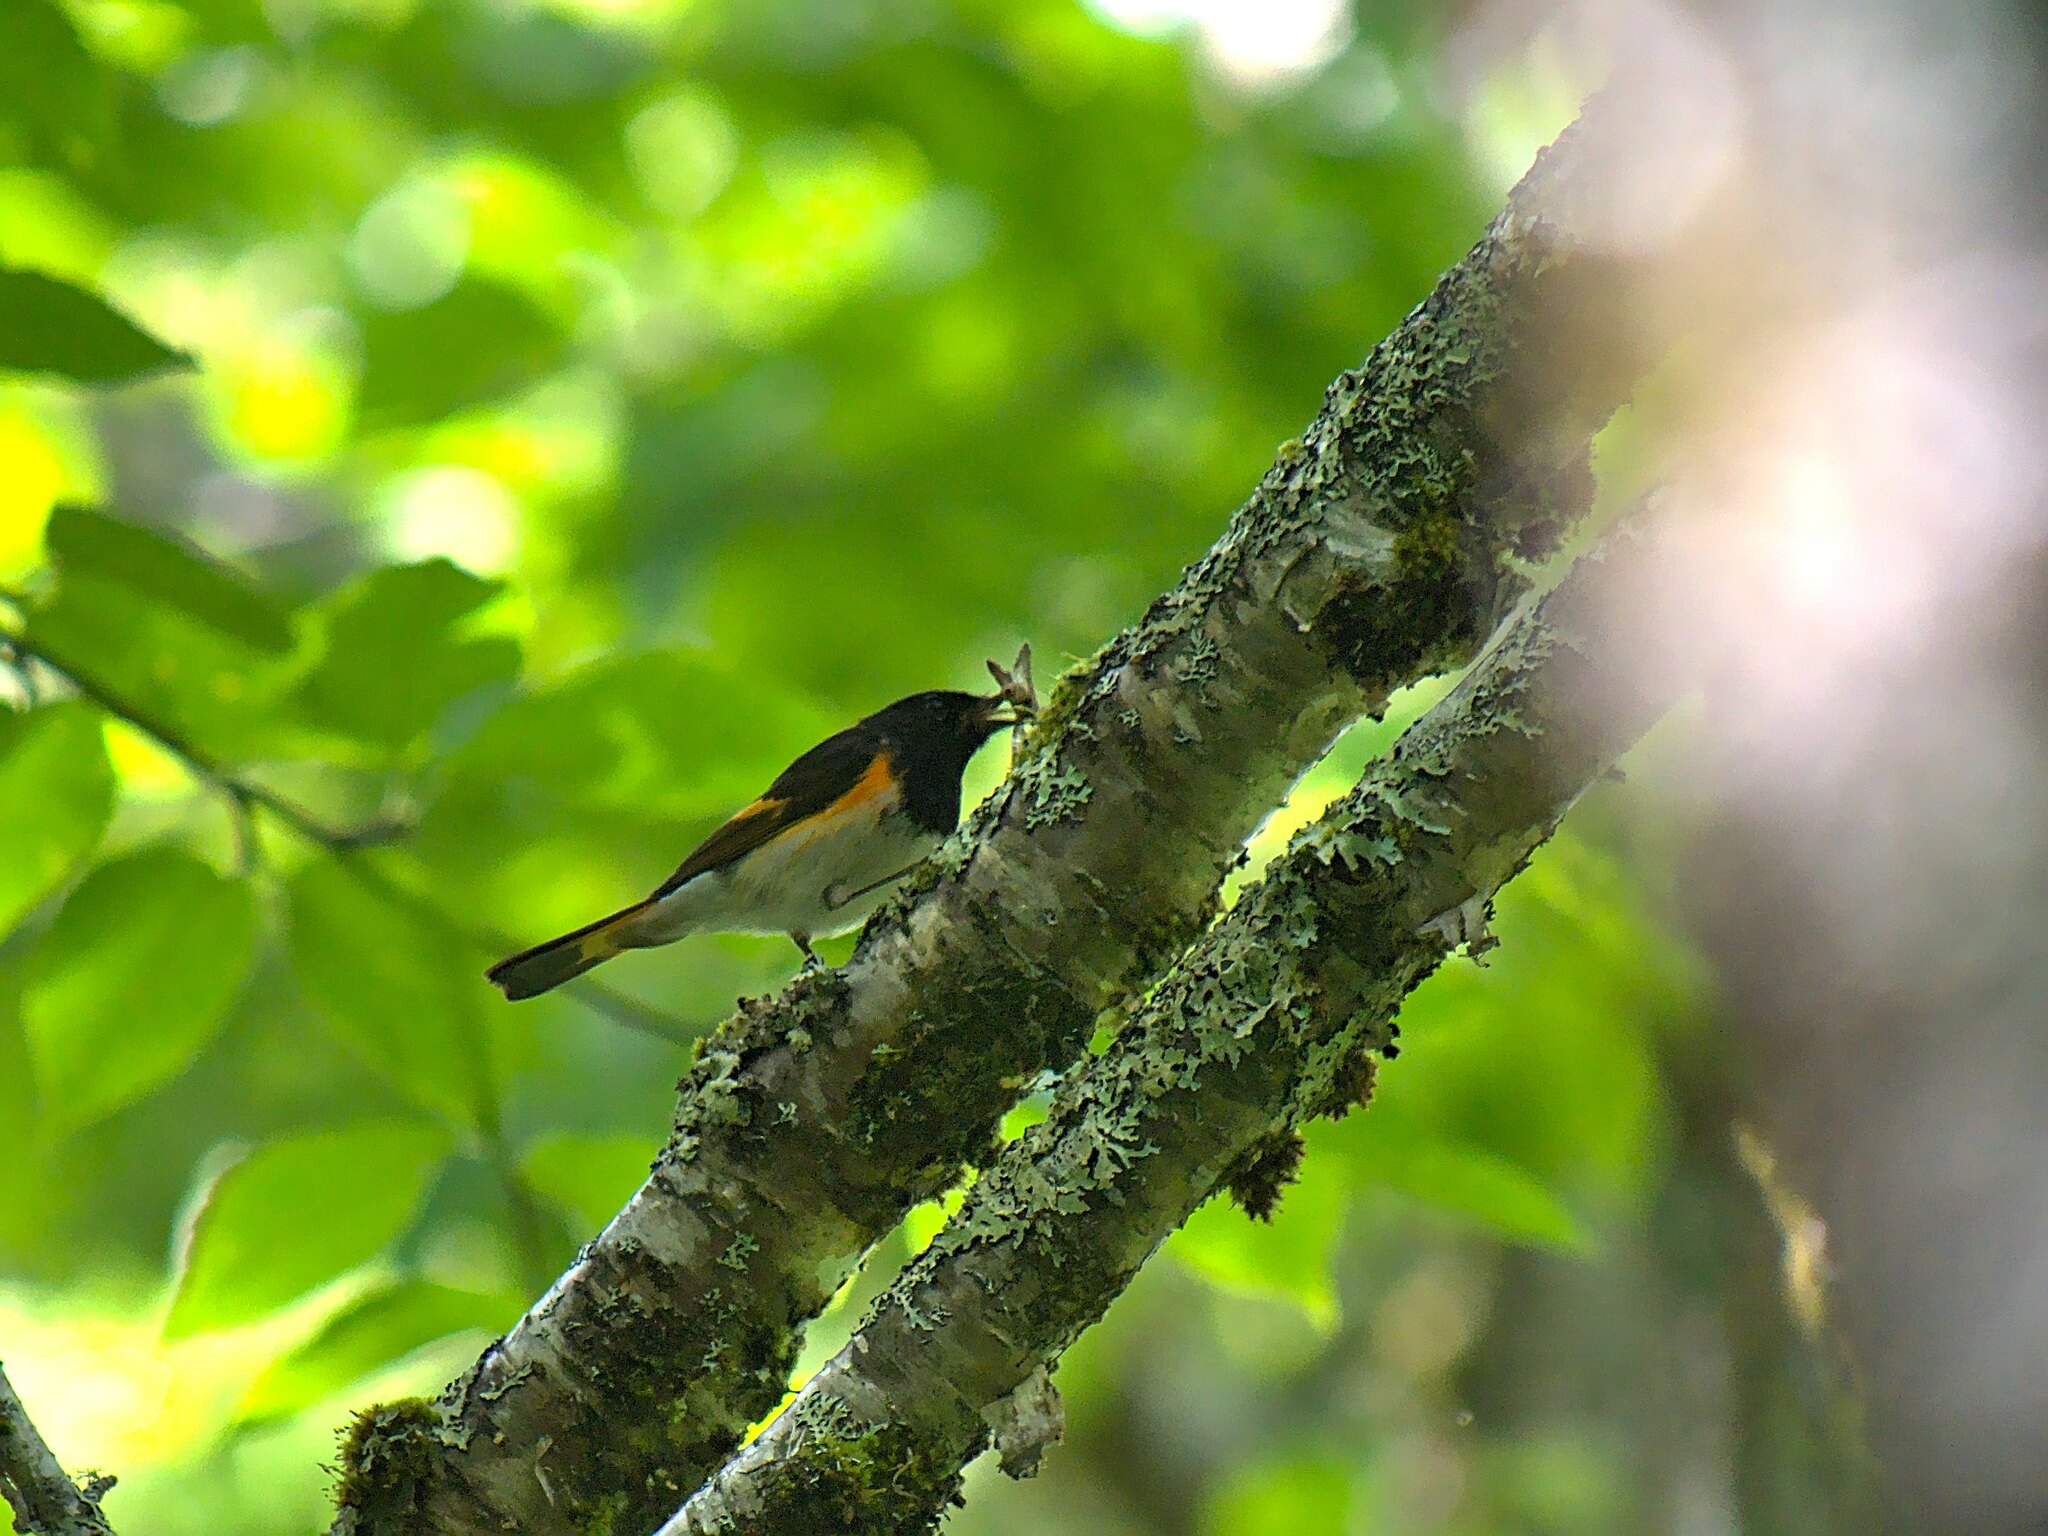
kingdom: Animalia
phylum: Chordata
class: Aves
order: Passeriformes
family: Parulidae
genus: Setophaga
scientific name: Setophaga ruticilla
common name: American redstart
